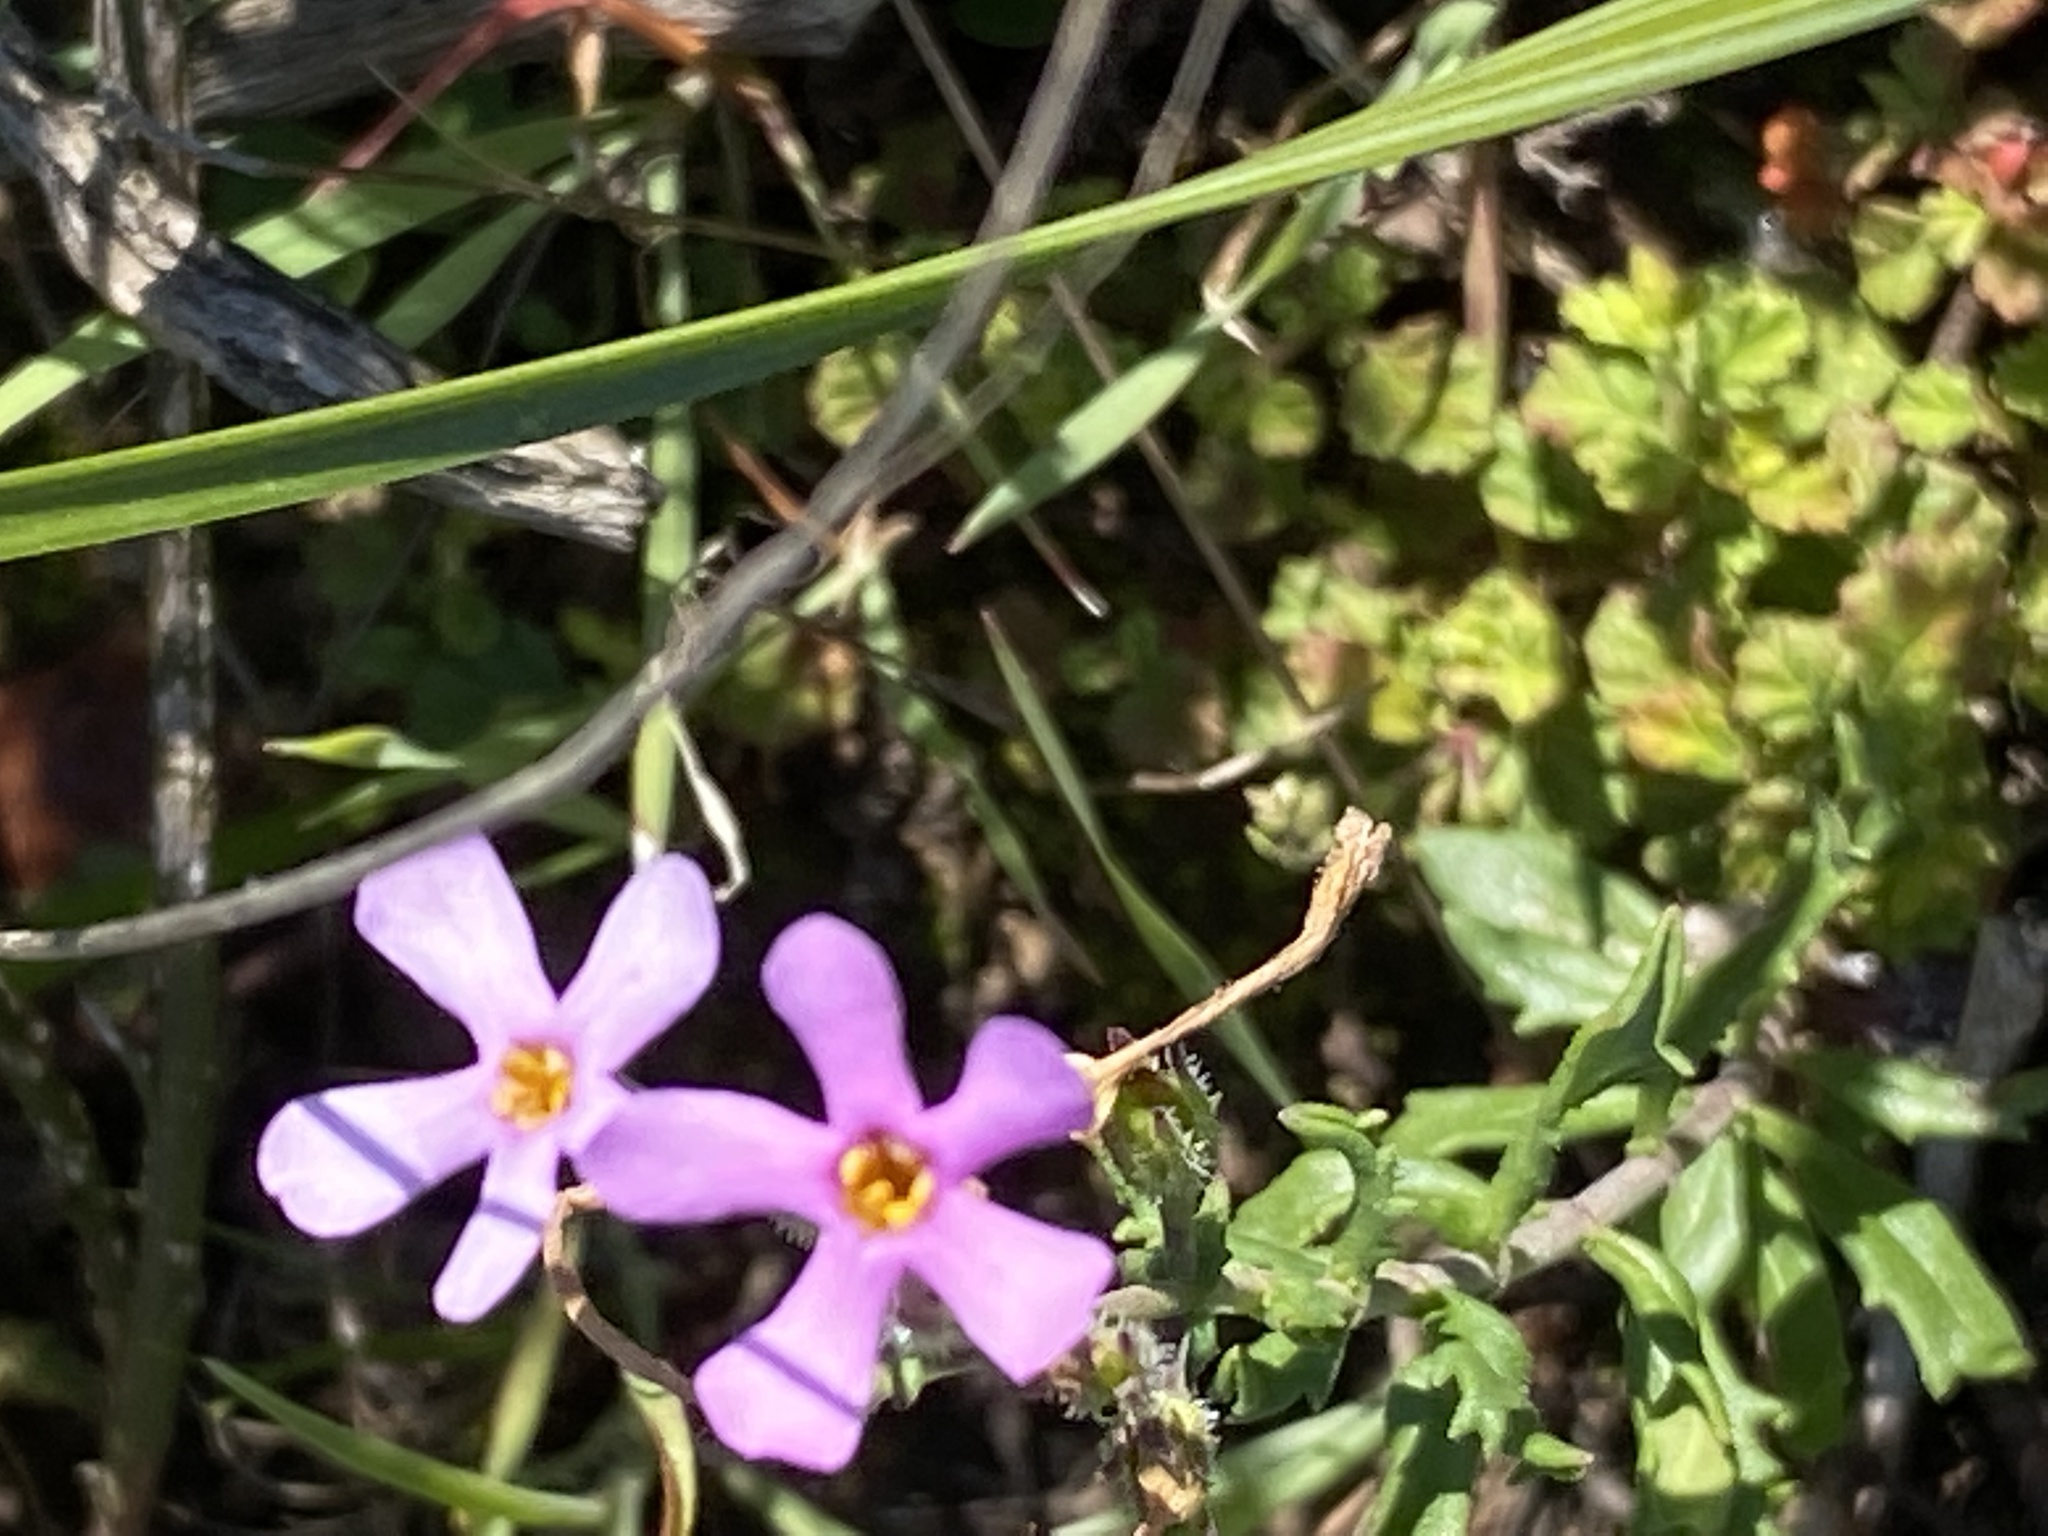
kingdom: Plantae
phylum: Tracheophyta
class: Magnoliopsida
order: Lamiales
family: Scrophulariaceae
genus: Chaenostoma
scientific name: Chaenostoma aethiopicum
